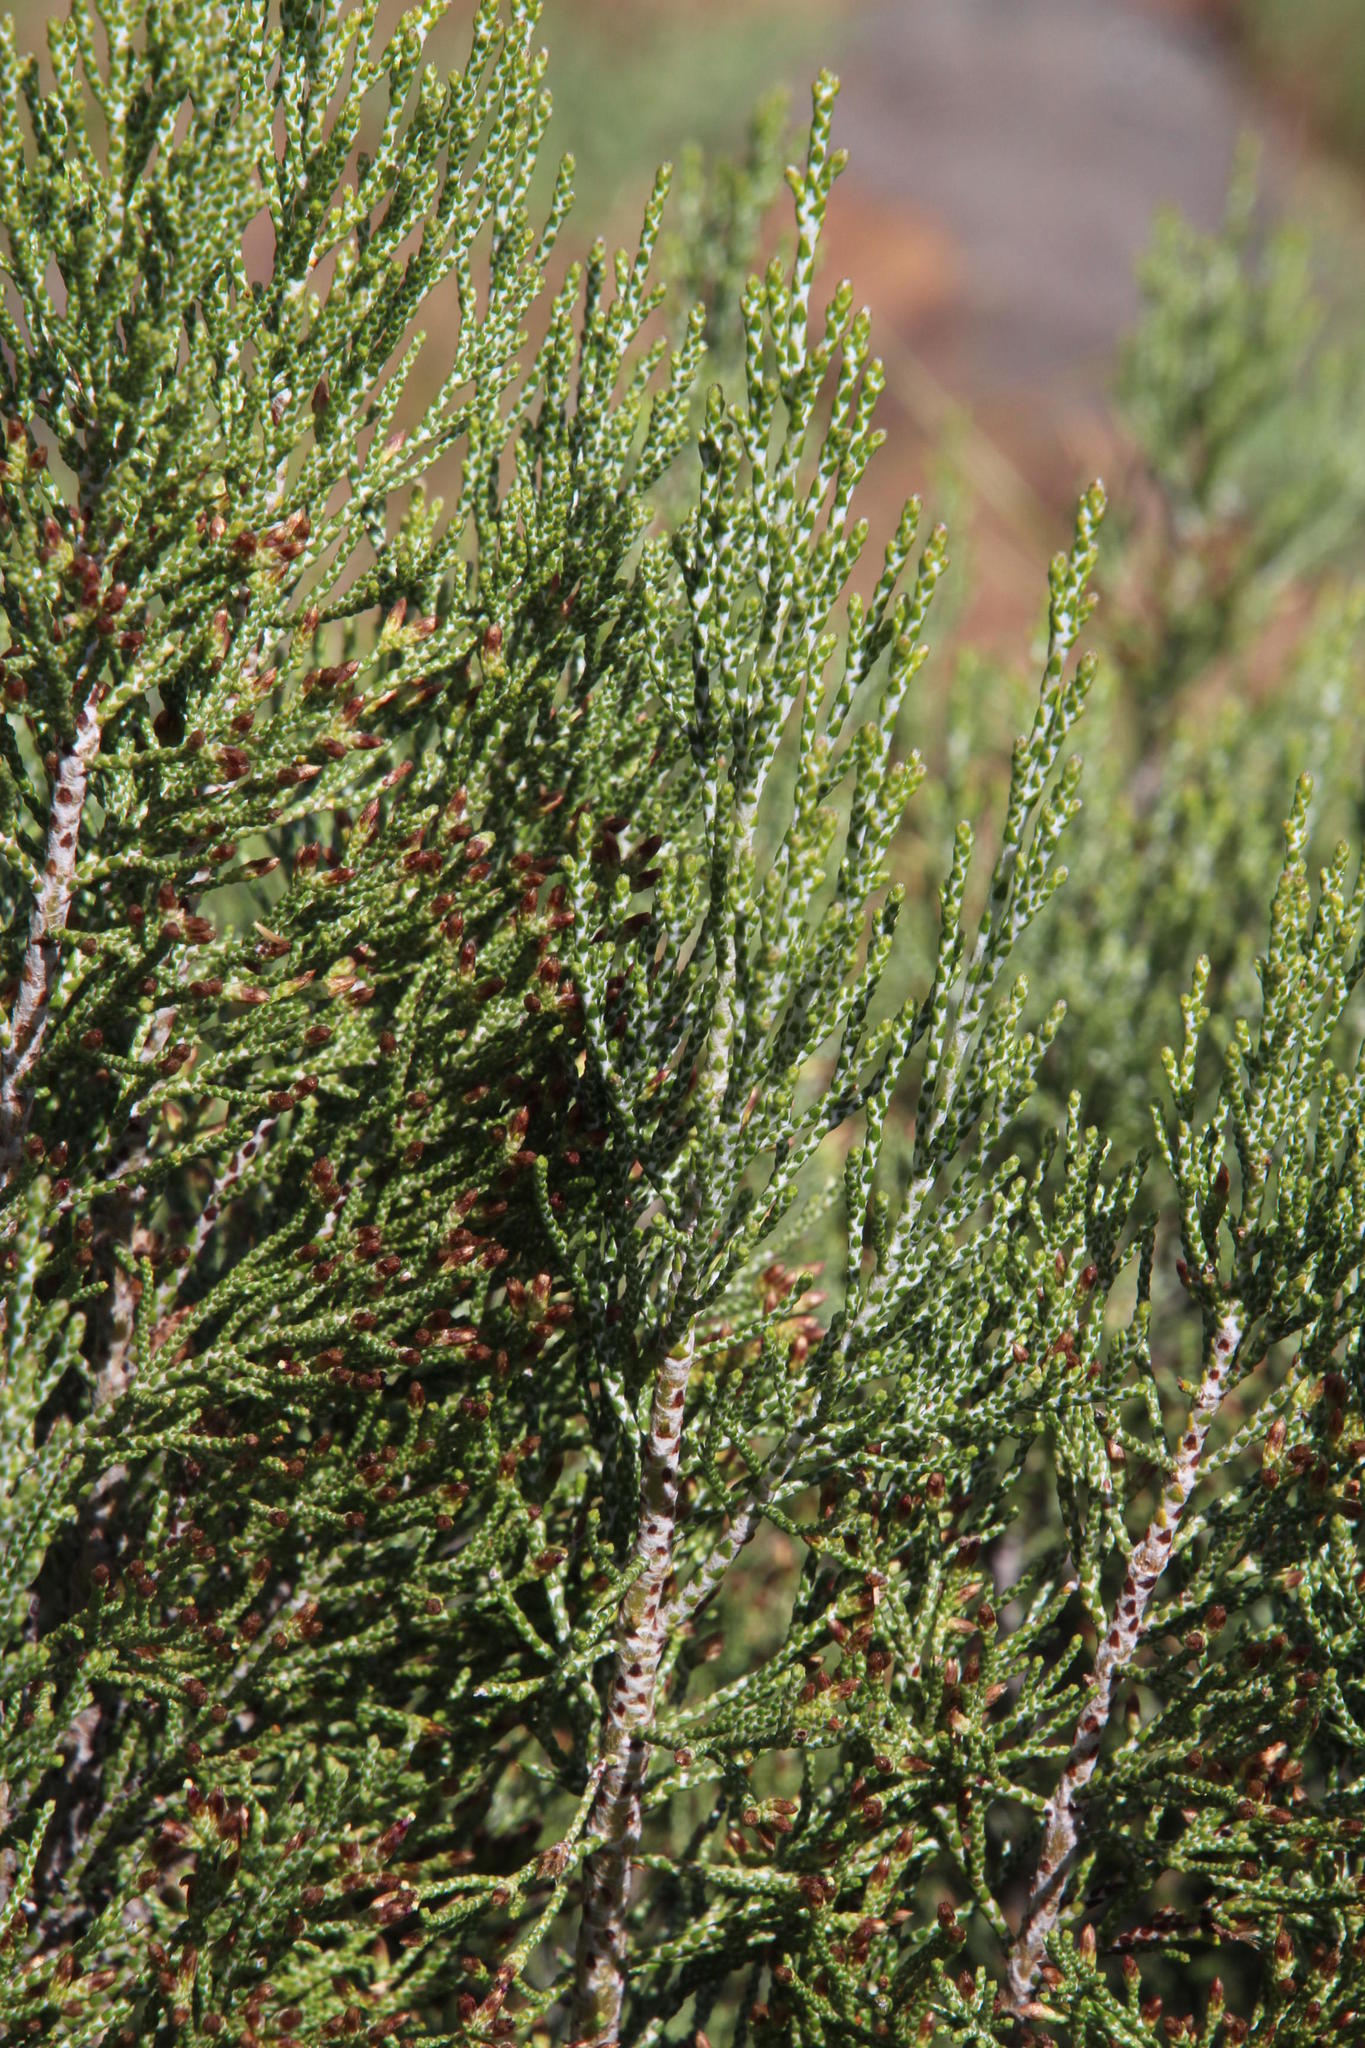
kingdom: Plantae
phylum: Tracheophyta
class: Magnoliopsida
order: Asterales
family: Asteraceae
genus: Dicerothamnus
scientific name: Dicerothamnus rhinocerotis
